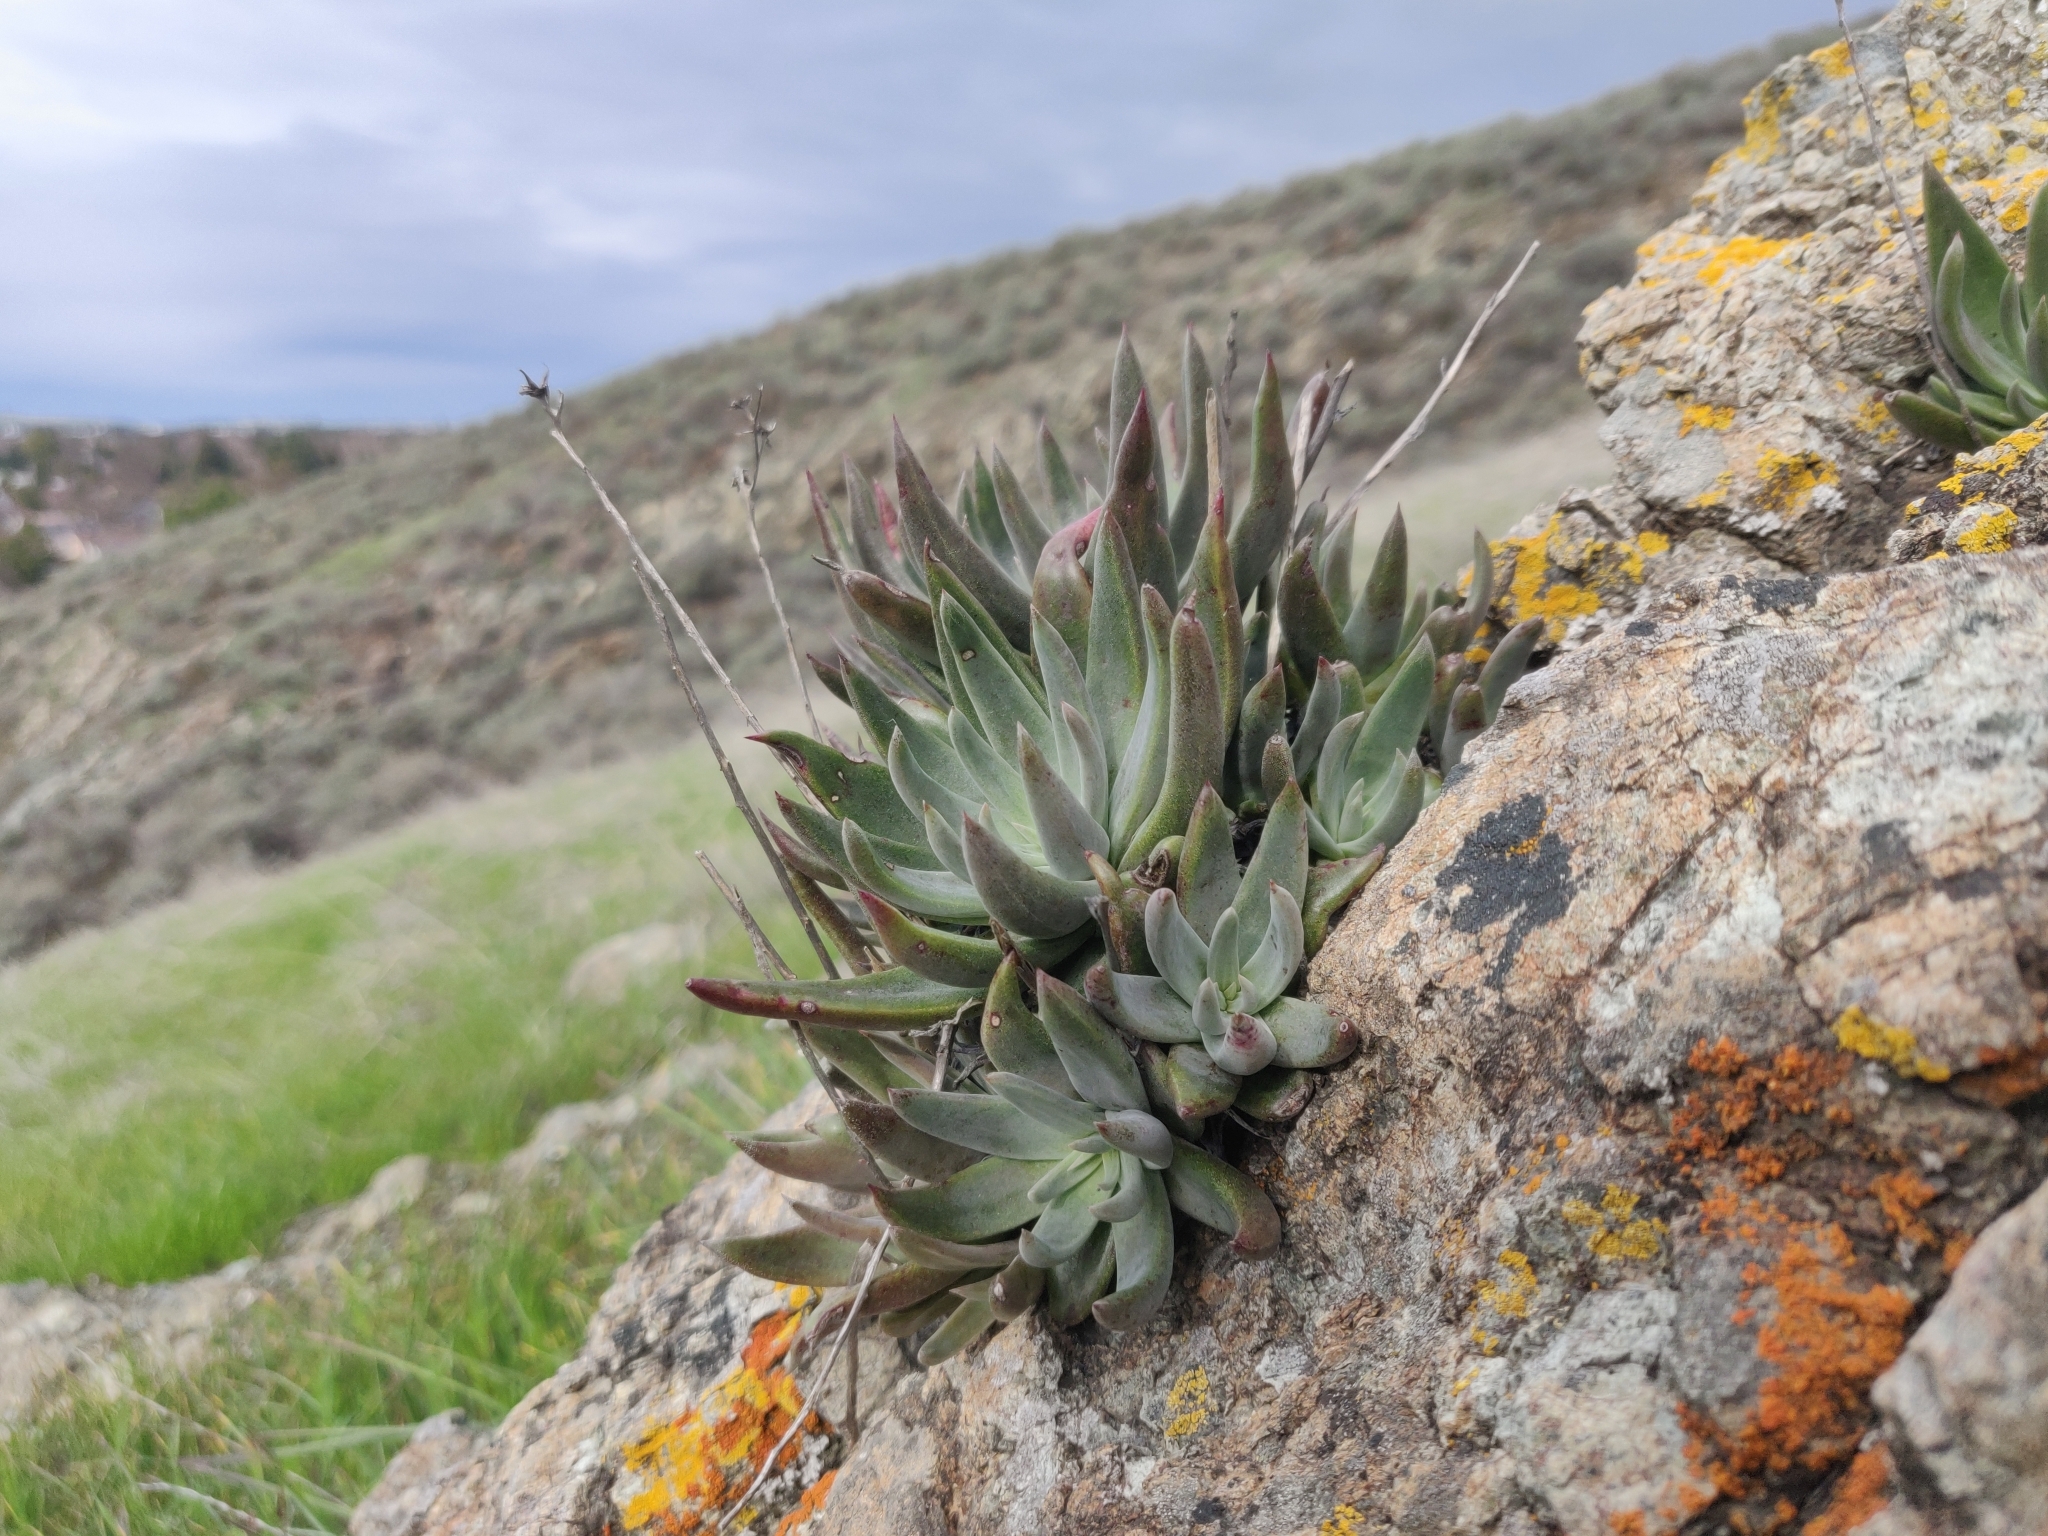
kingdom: Plantae
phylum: Tracheophyta
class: Magnoliopsida
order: Saxifragales
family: Crassulaceae
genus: Dudleya
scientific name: Dudleya abramsii
